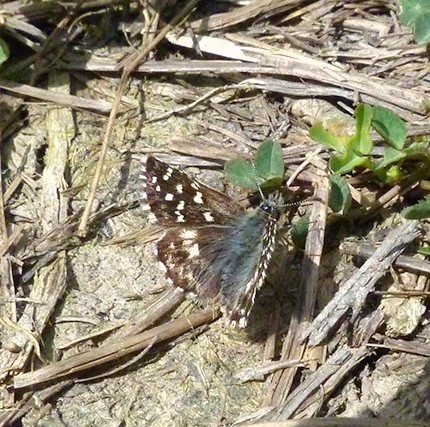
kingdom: Animalia
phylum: Arthropoda
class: Insecta
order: Lepidoptera
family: Hesperiidae
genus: Pyrgus
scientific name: Pyrgus malvoides
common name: Southern grizzled skipper
